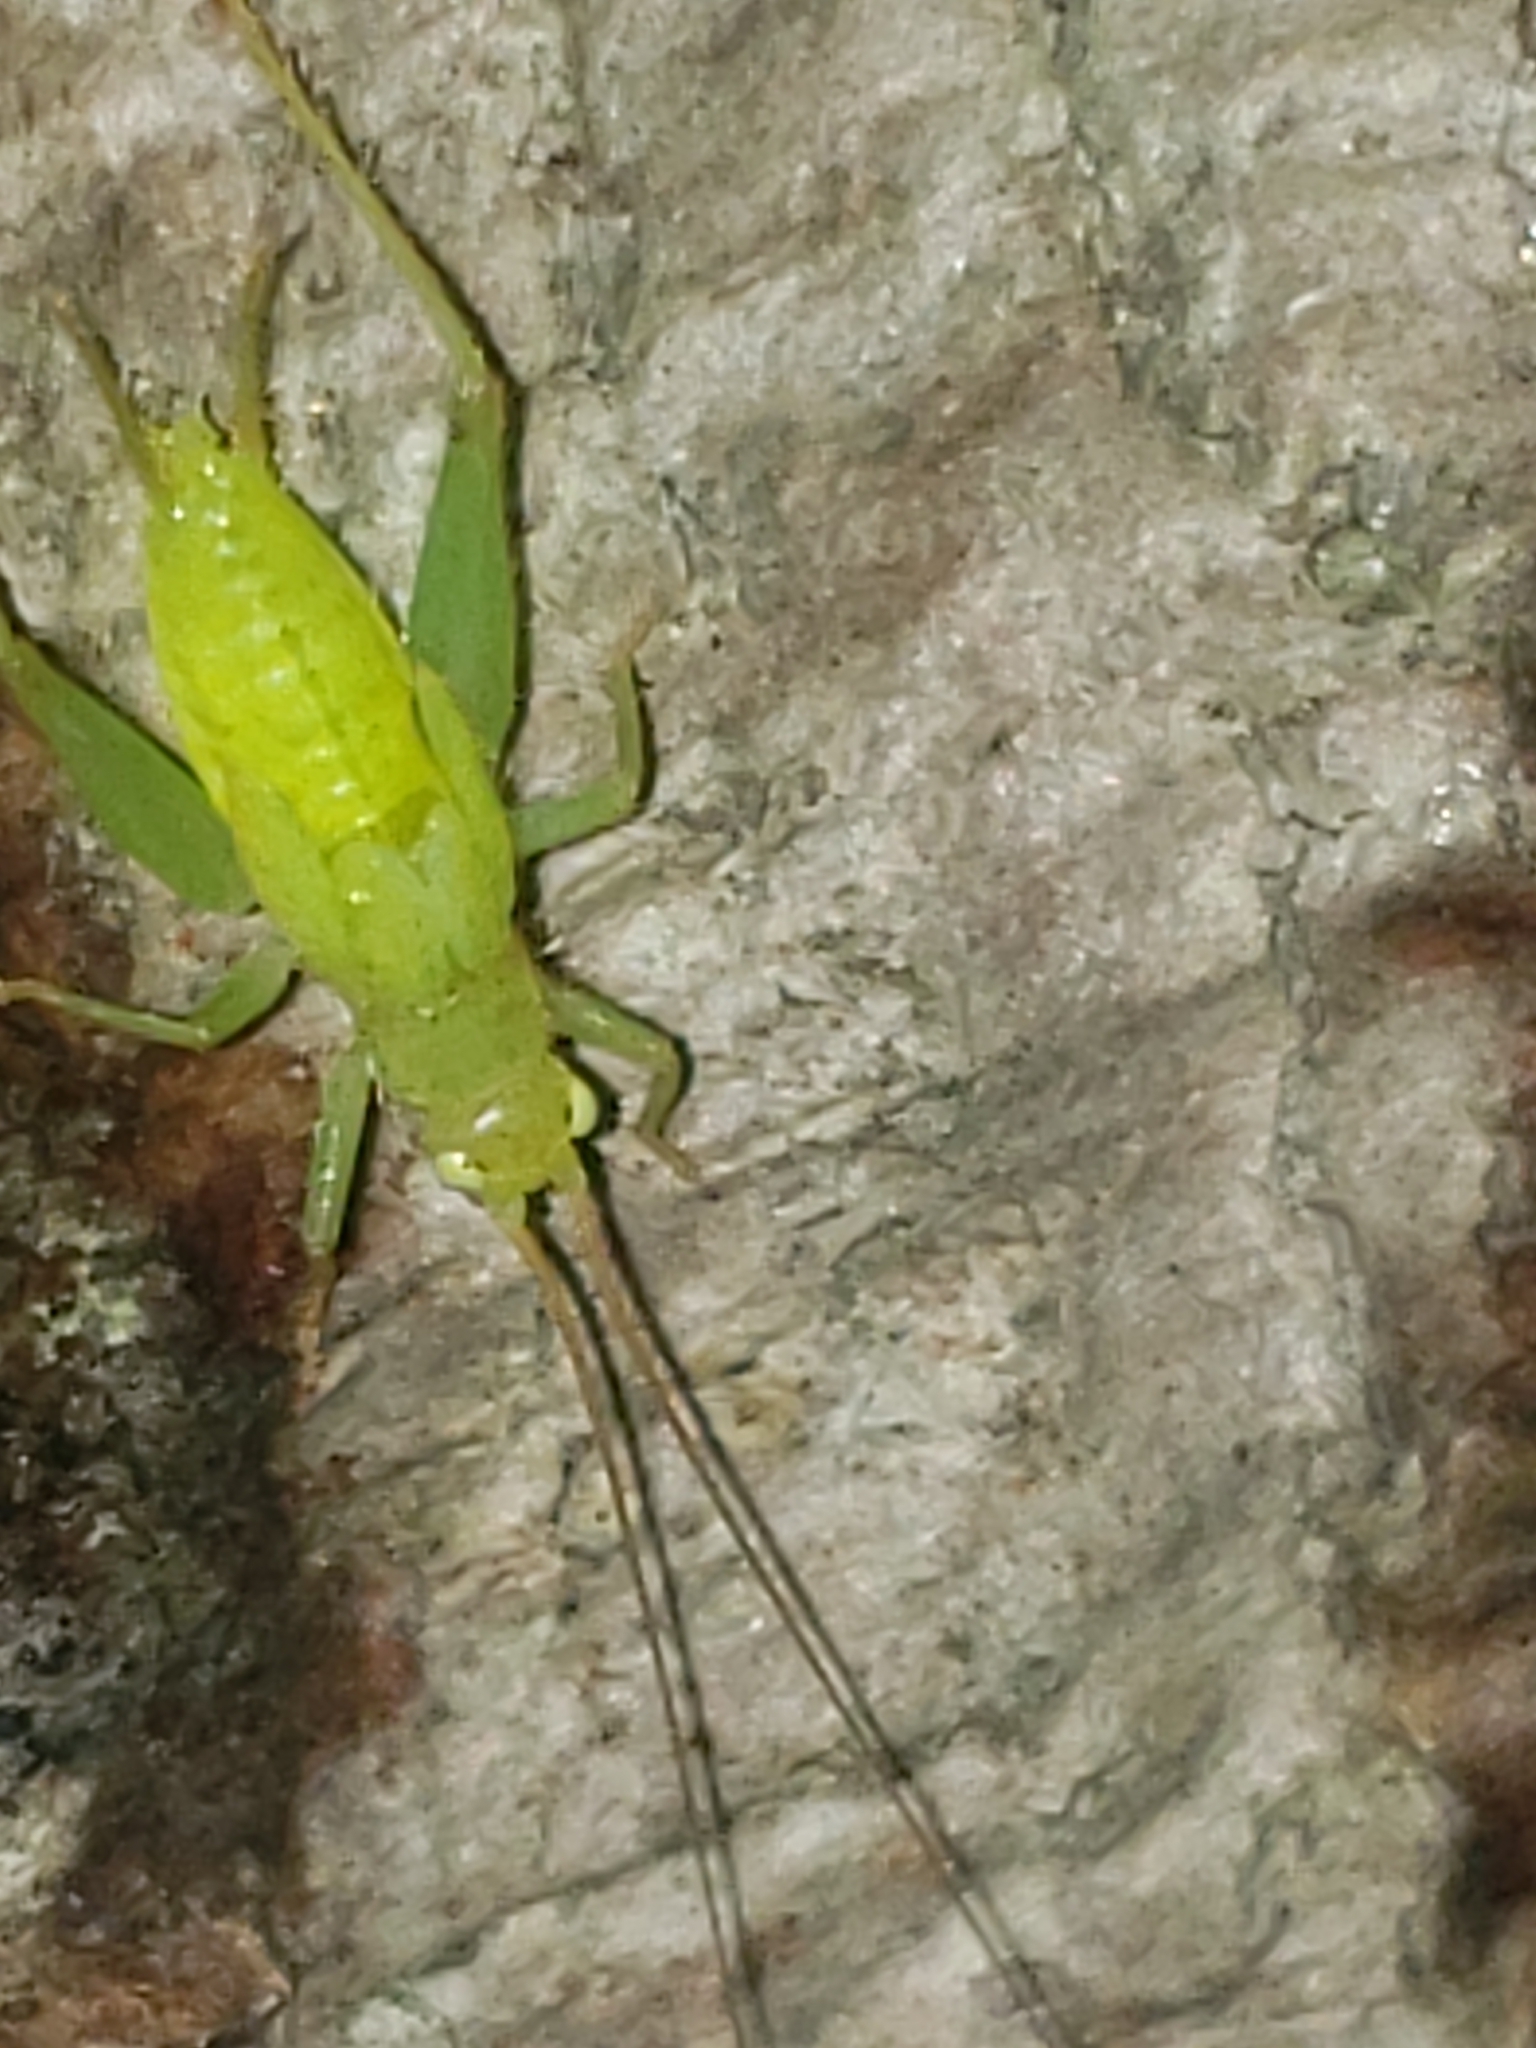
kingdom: Animalia
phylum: Arthropoda
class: Insecta
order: Orthoptera
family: Trigonidiidae
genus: Cyrtoxipha
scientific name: Cyrtoxipha columbiana
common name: Columbian trig
